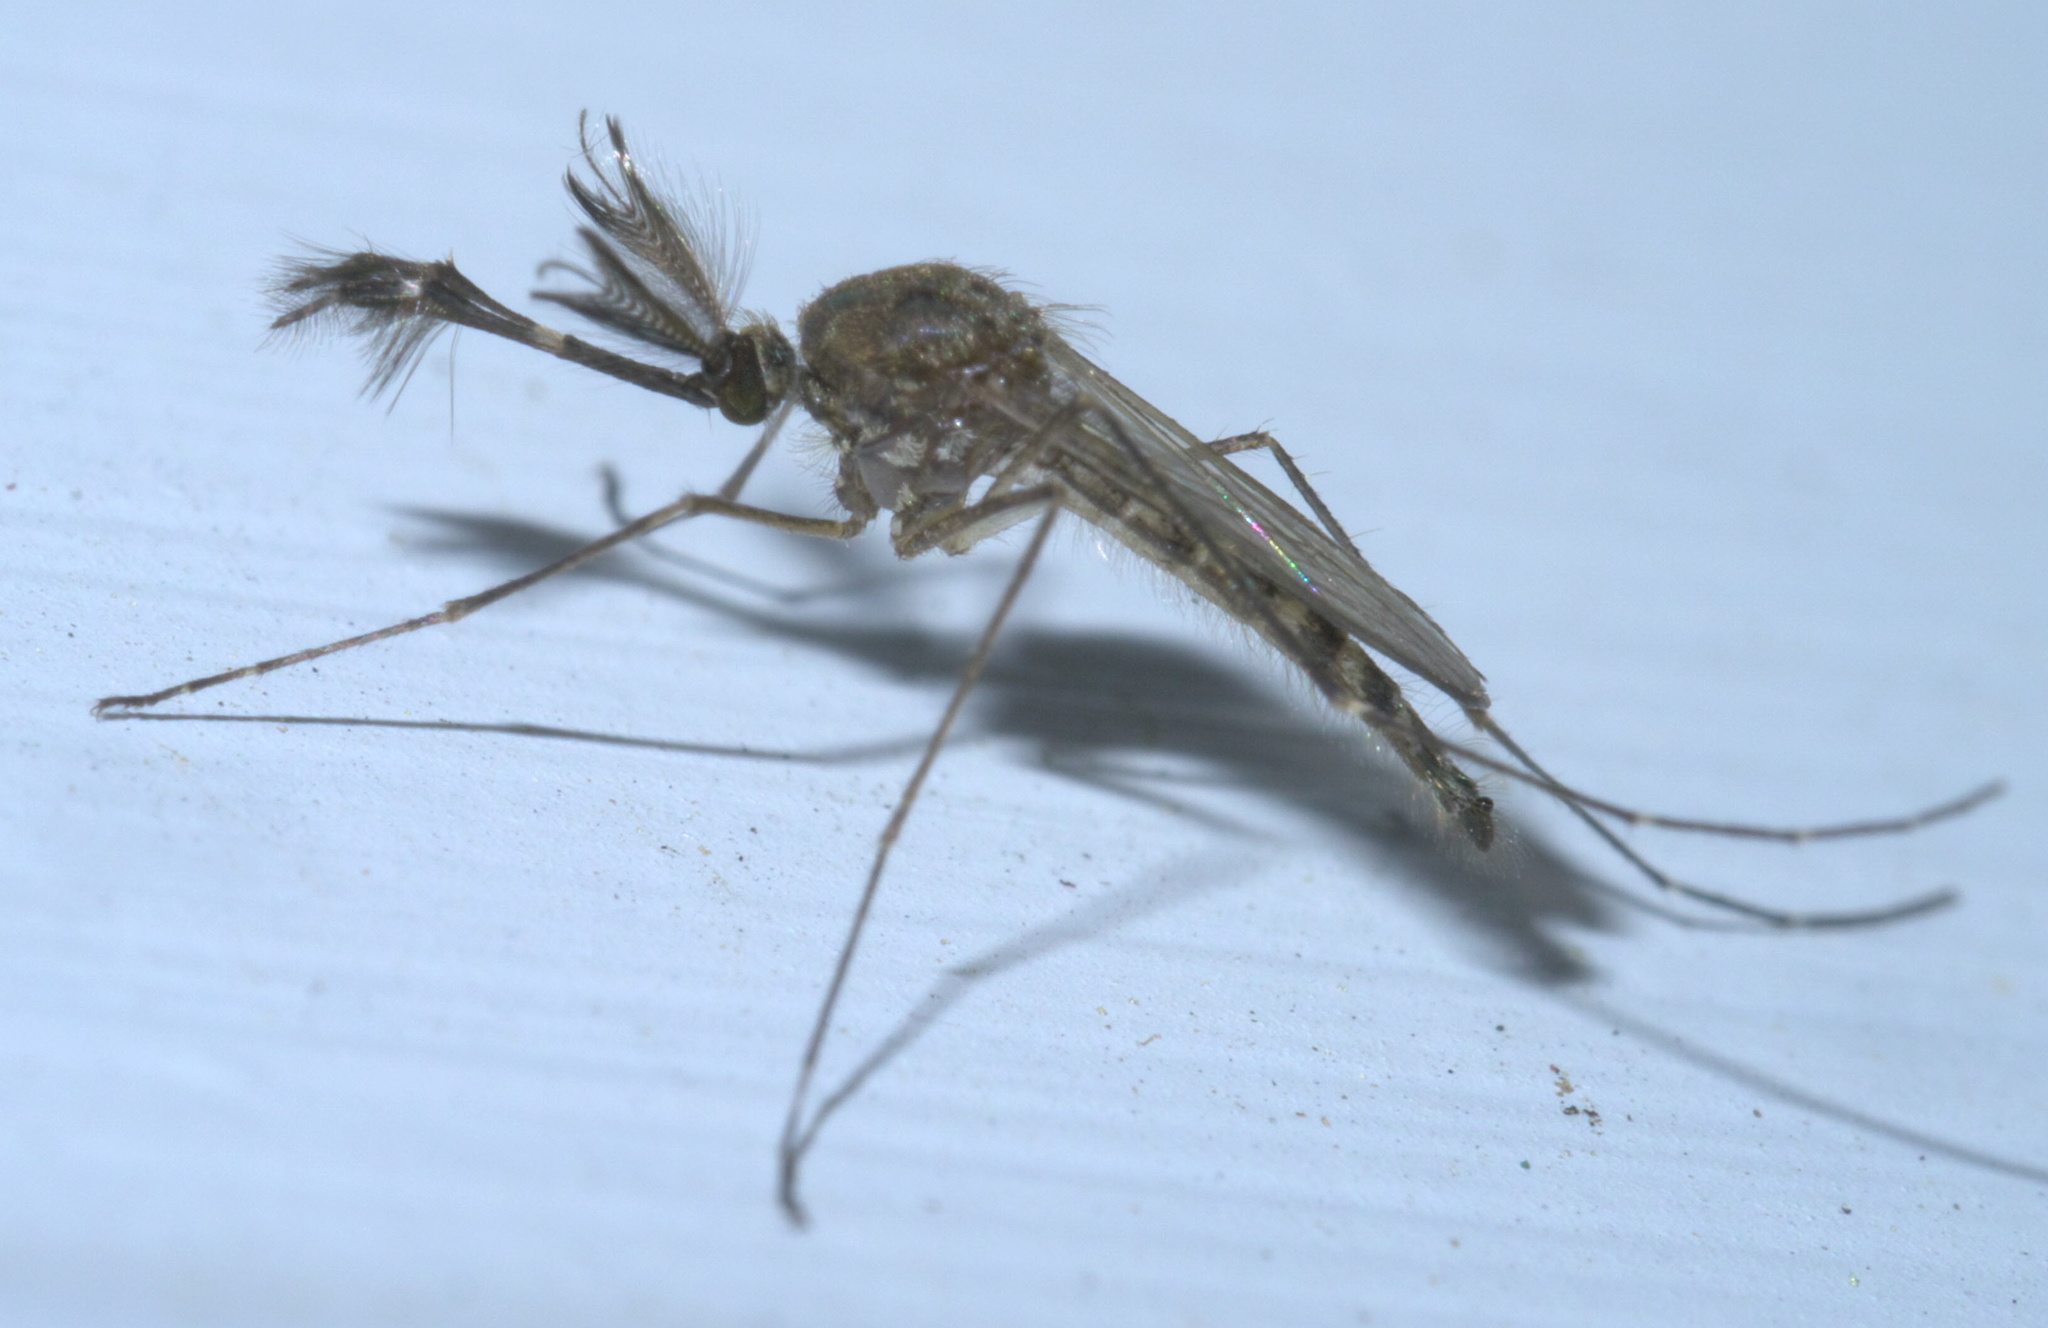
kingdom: Animalia
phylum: Arthropoda
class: Insecta
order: Diptera
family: Culicidae
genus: Aedes
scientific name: Aedes vexans
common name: Inland floodwater mosquito
